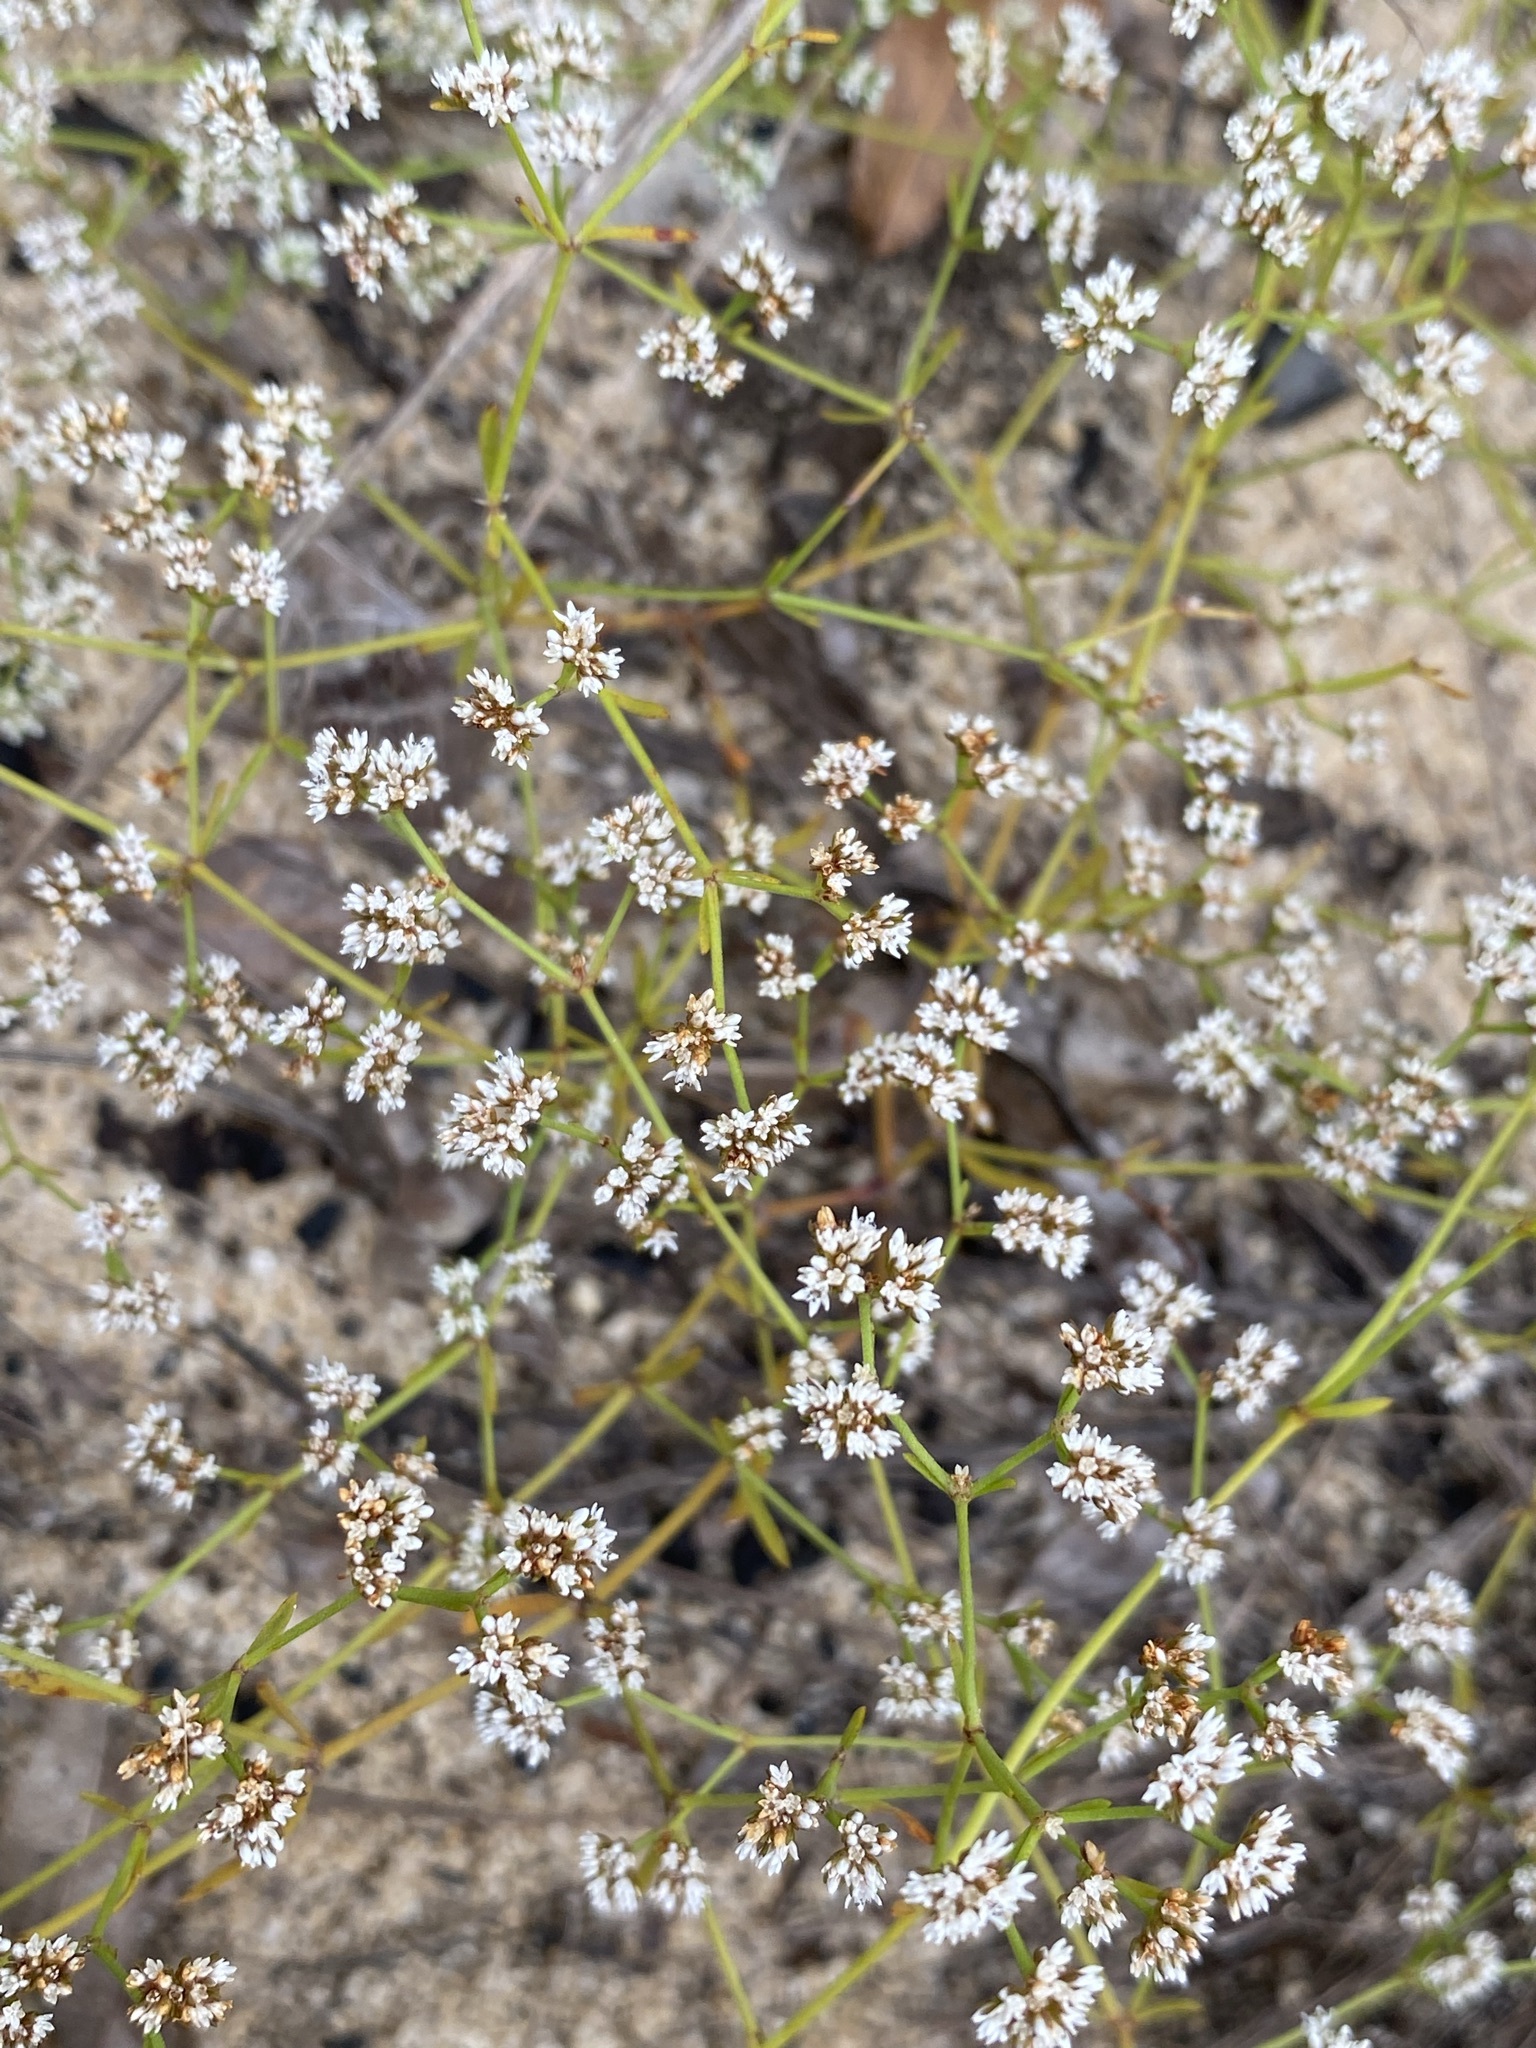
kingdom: Plantae
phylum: Tracheophyta
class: Magnoliopsida
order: Caryophyllales
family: Caryophyllaceae
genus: Paronychia
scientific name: Paronychia patula
